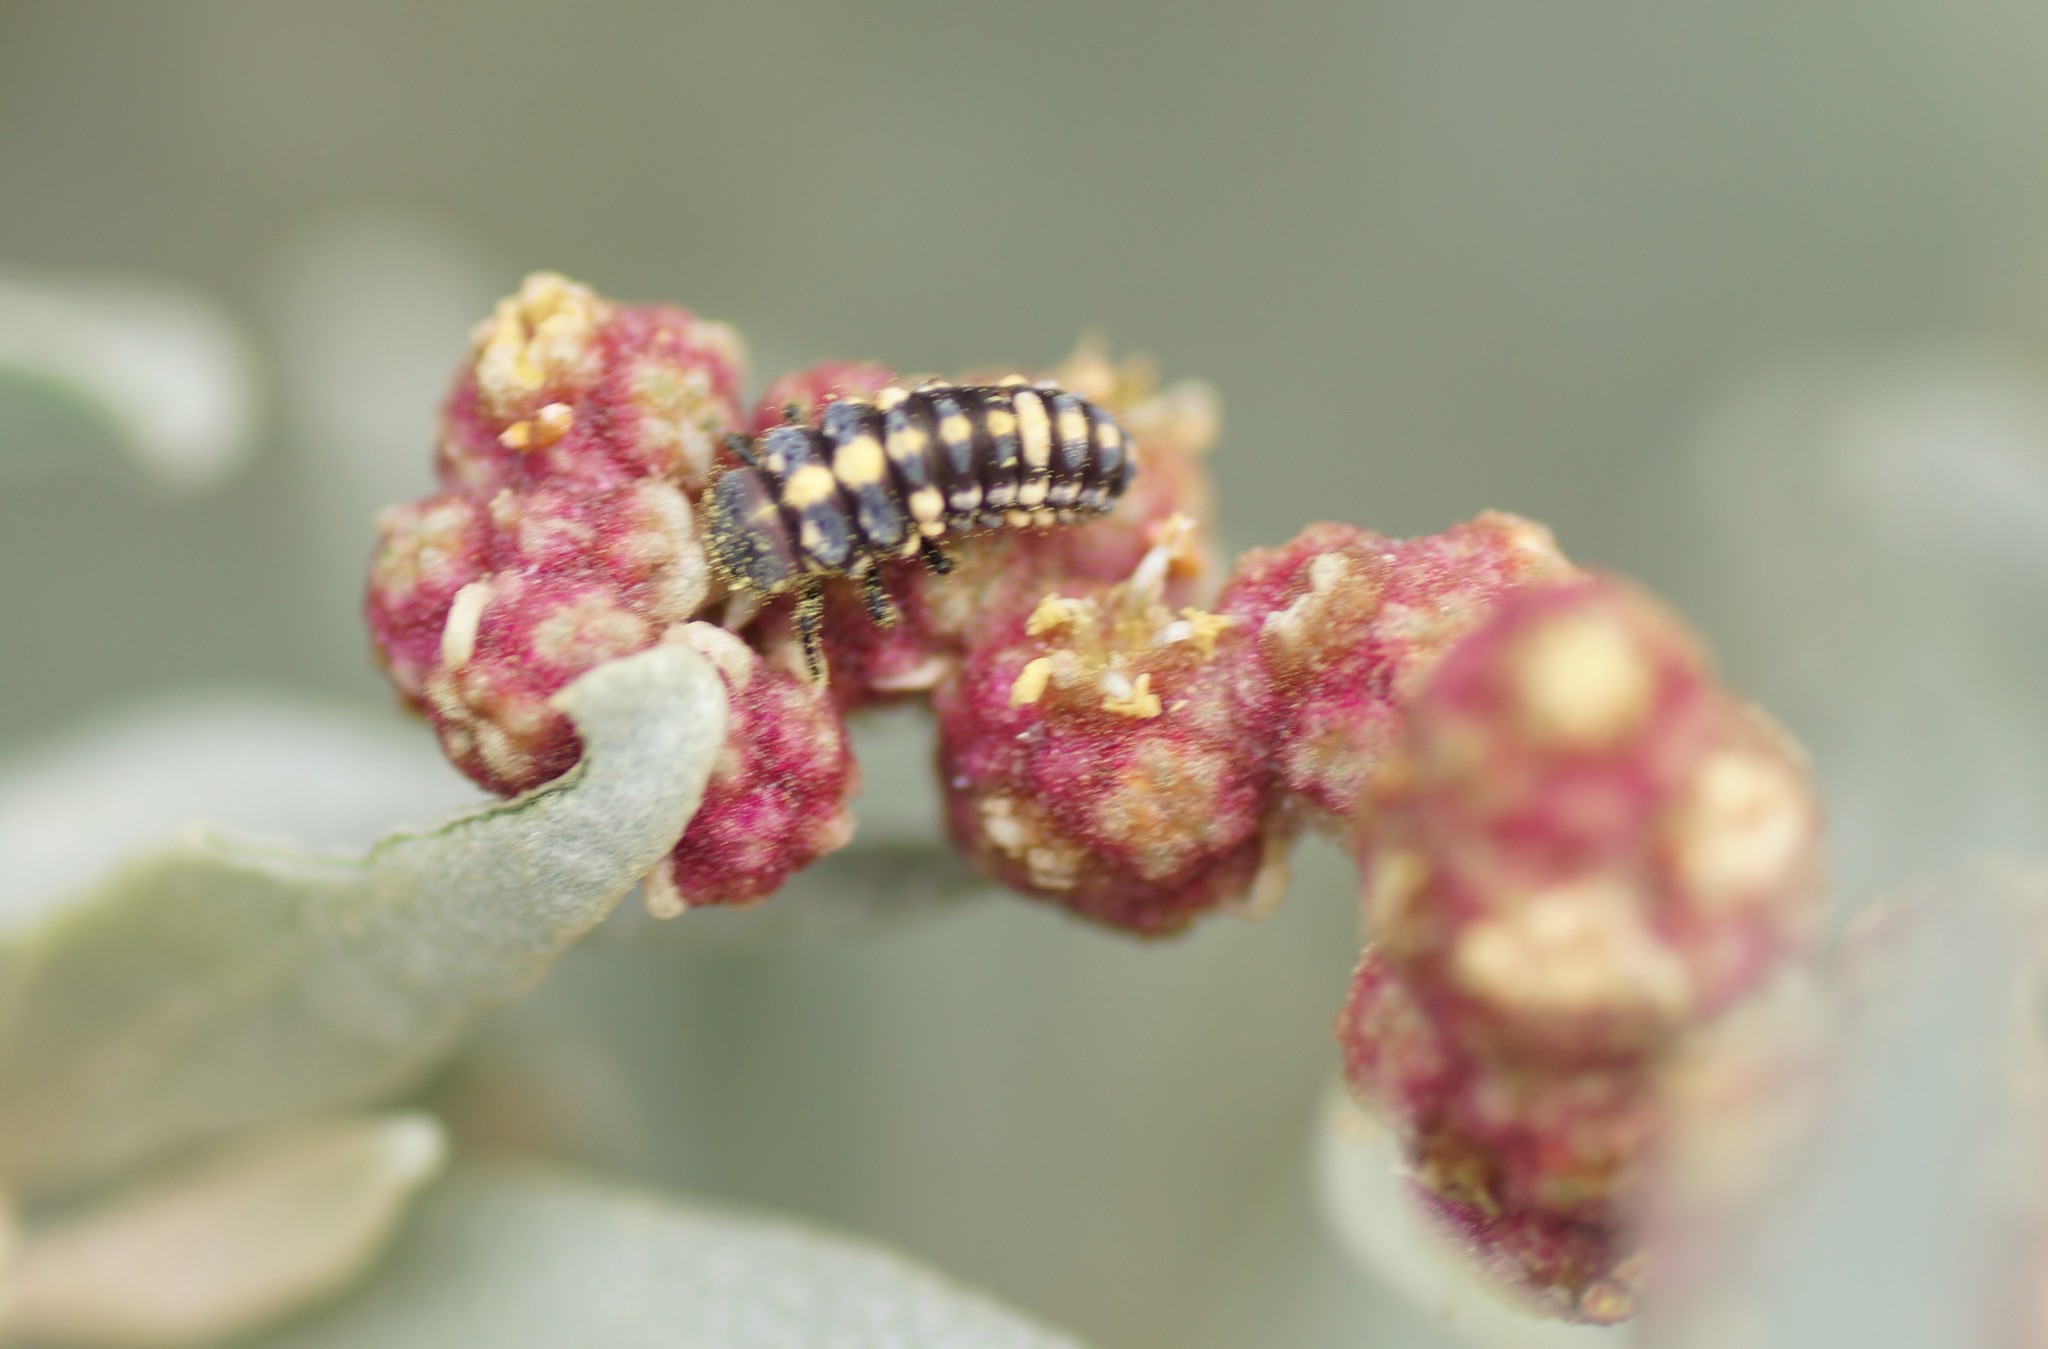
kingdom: Animalia
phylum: Arthropoda
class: Insecta
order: Coleoptera
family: Coccinellidae
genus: Micraspis
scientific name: Micraspis
